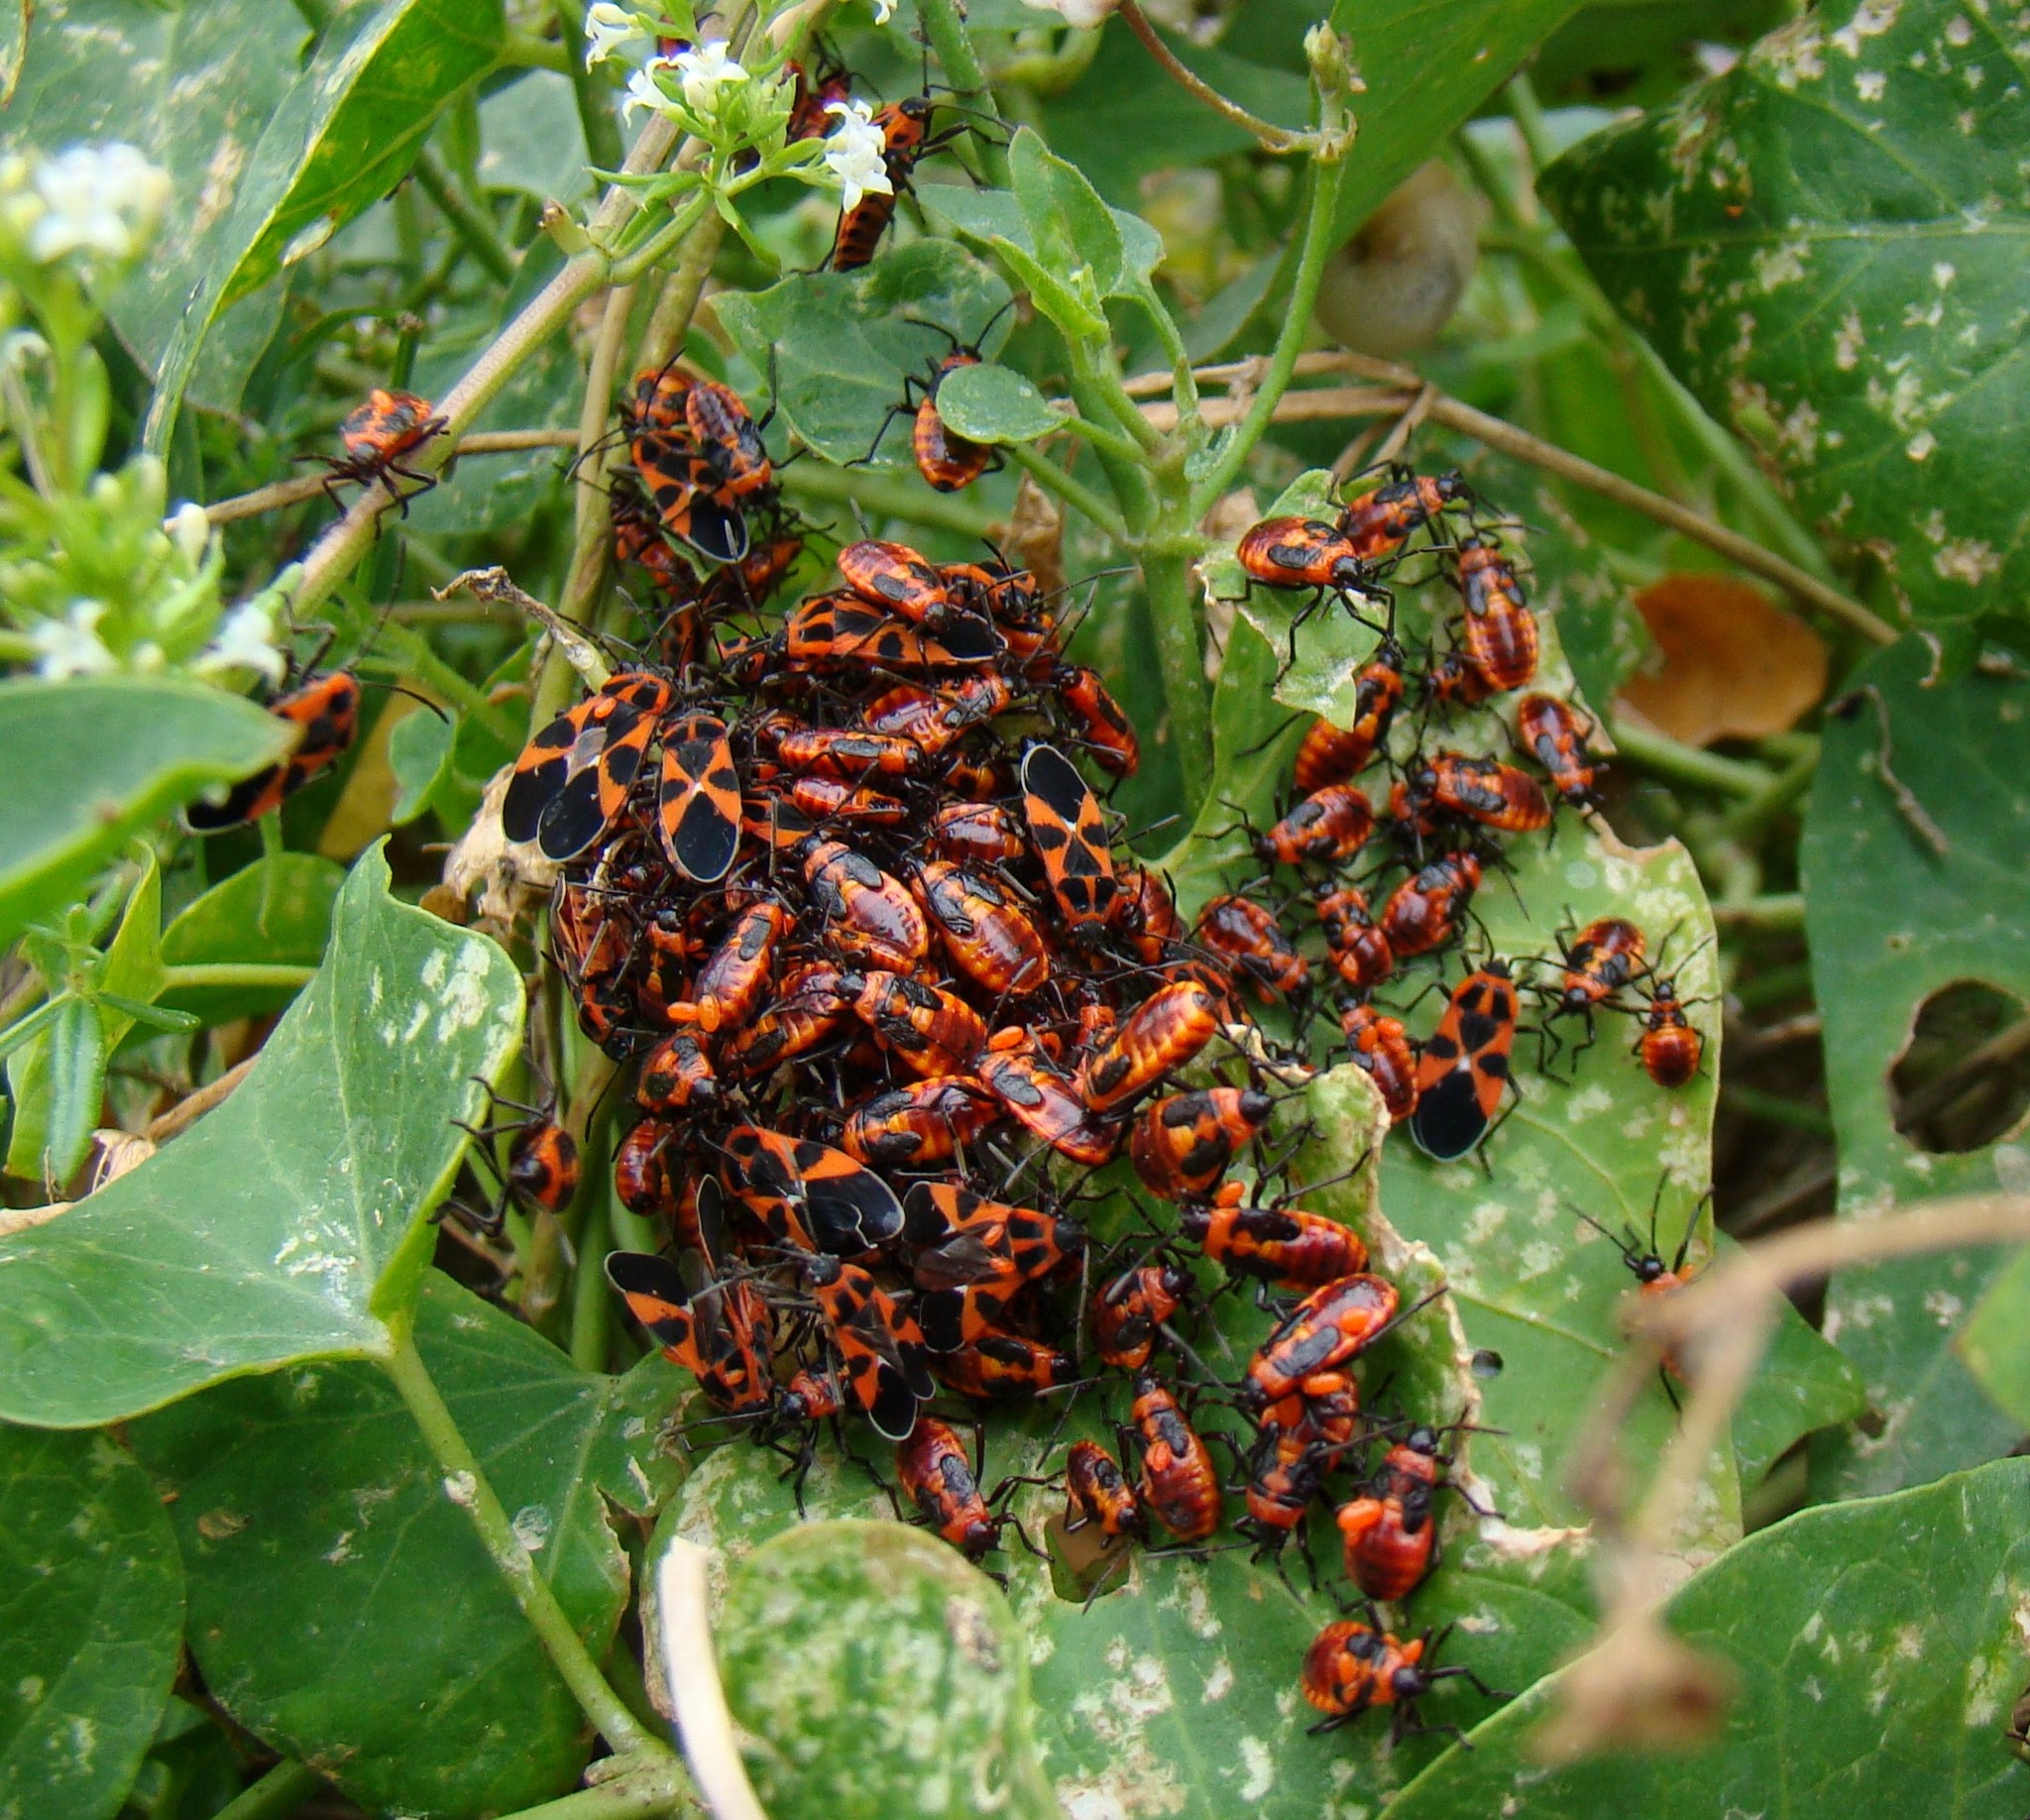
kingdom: Animalia
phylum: Arthropoda
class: Insecta
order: Hemiptera
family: Lygaeidae
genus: Tropidothorax
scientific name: Tropidothorax leucopterus
